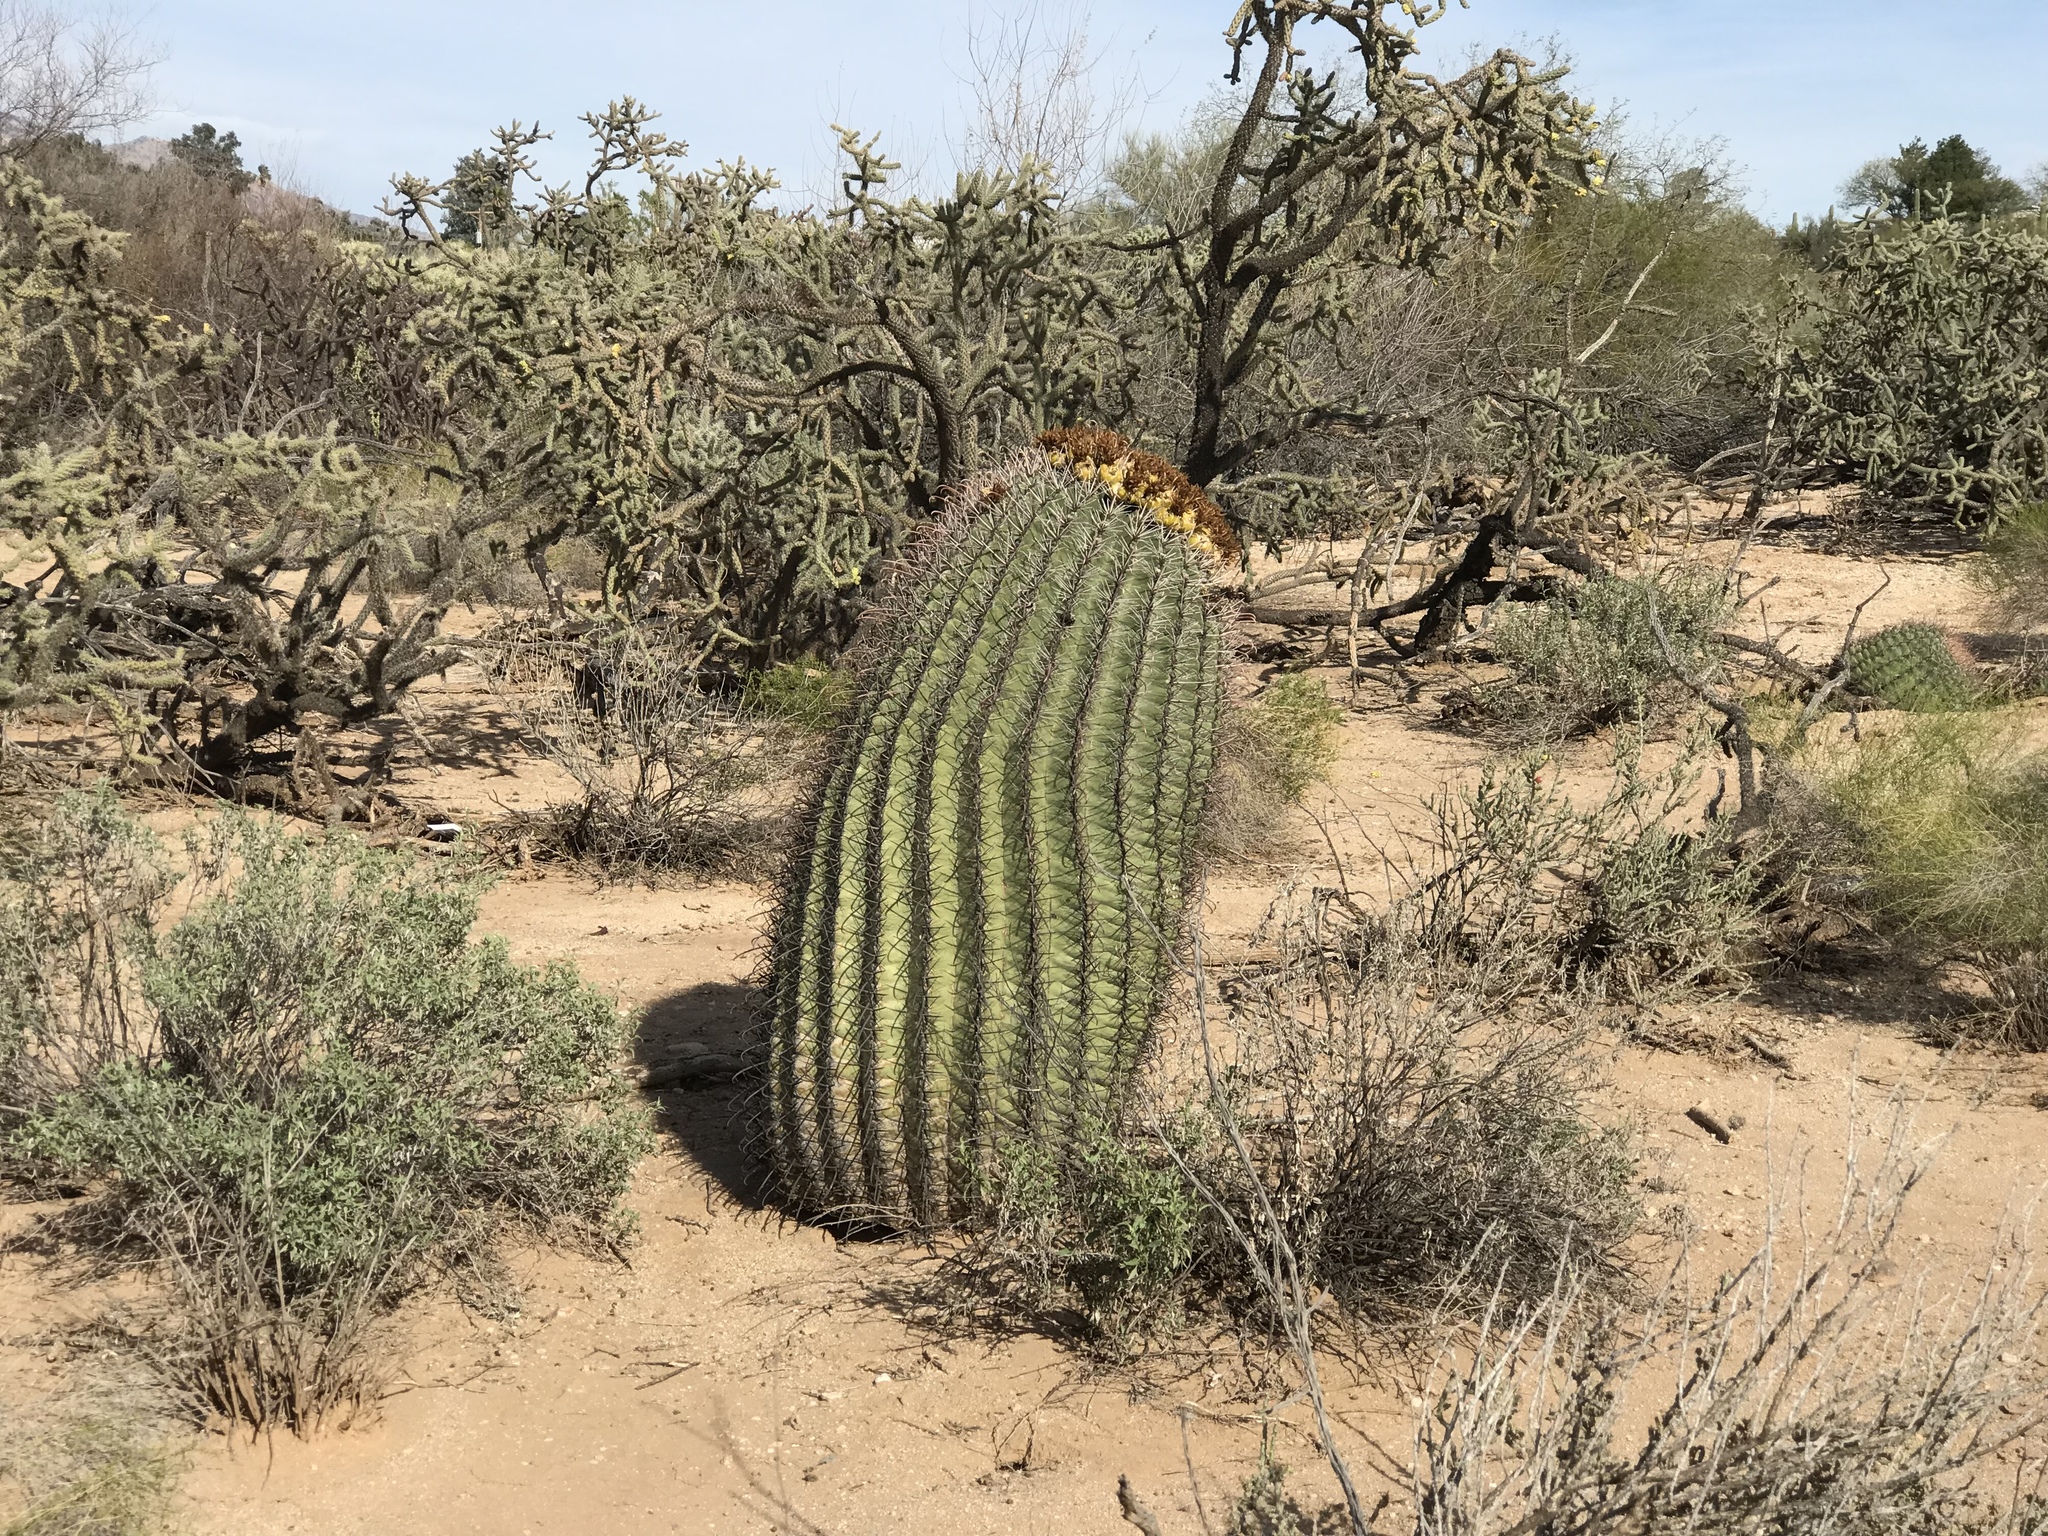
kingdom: Plantae
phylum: Tracheophyta
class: Magnoliopsida
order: Caryophyllales
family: Cactaceae
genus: Ferocactus
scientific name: Ferocactus wislizeni
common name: Candy barrel cactus
